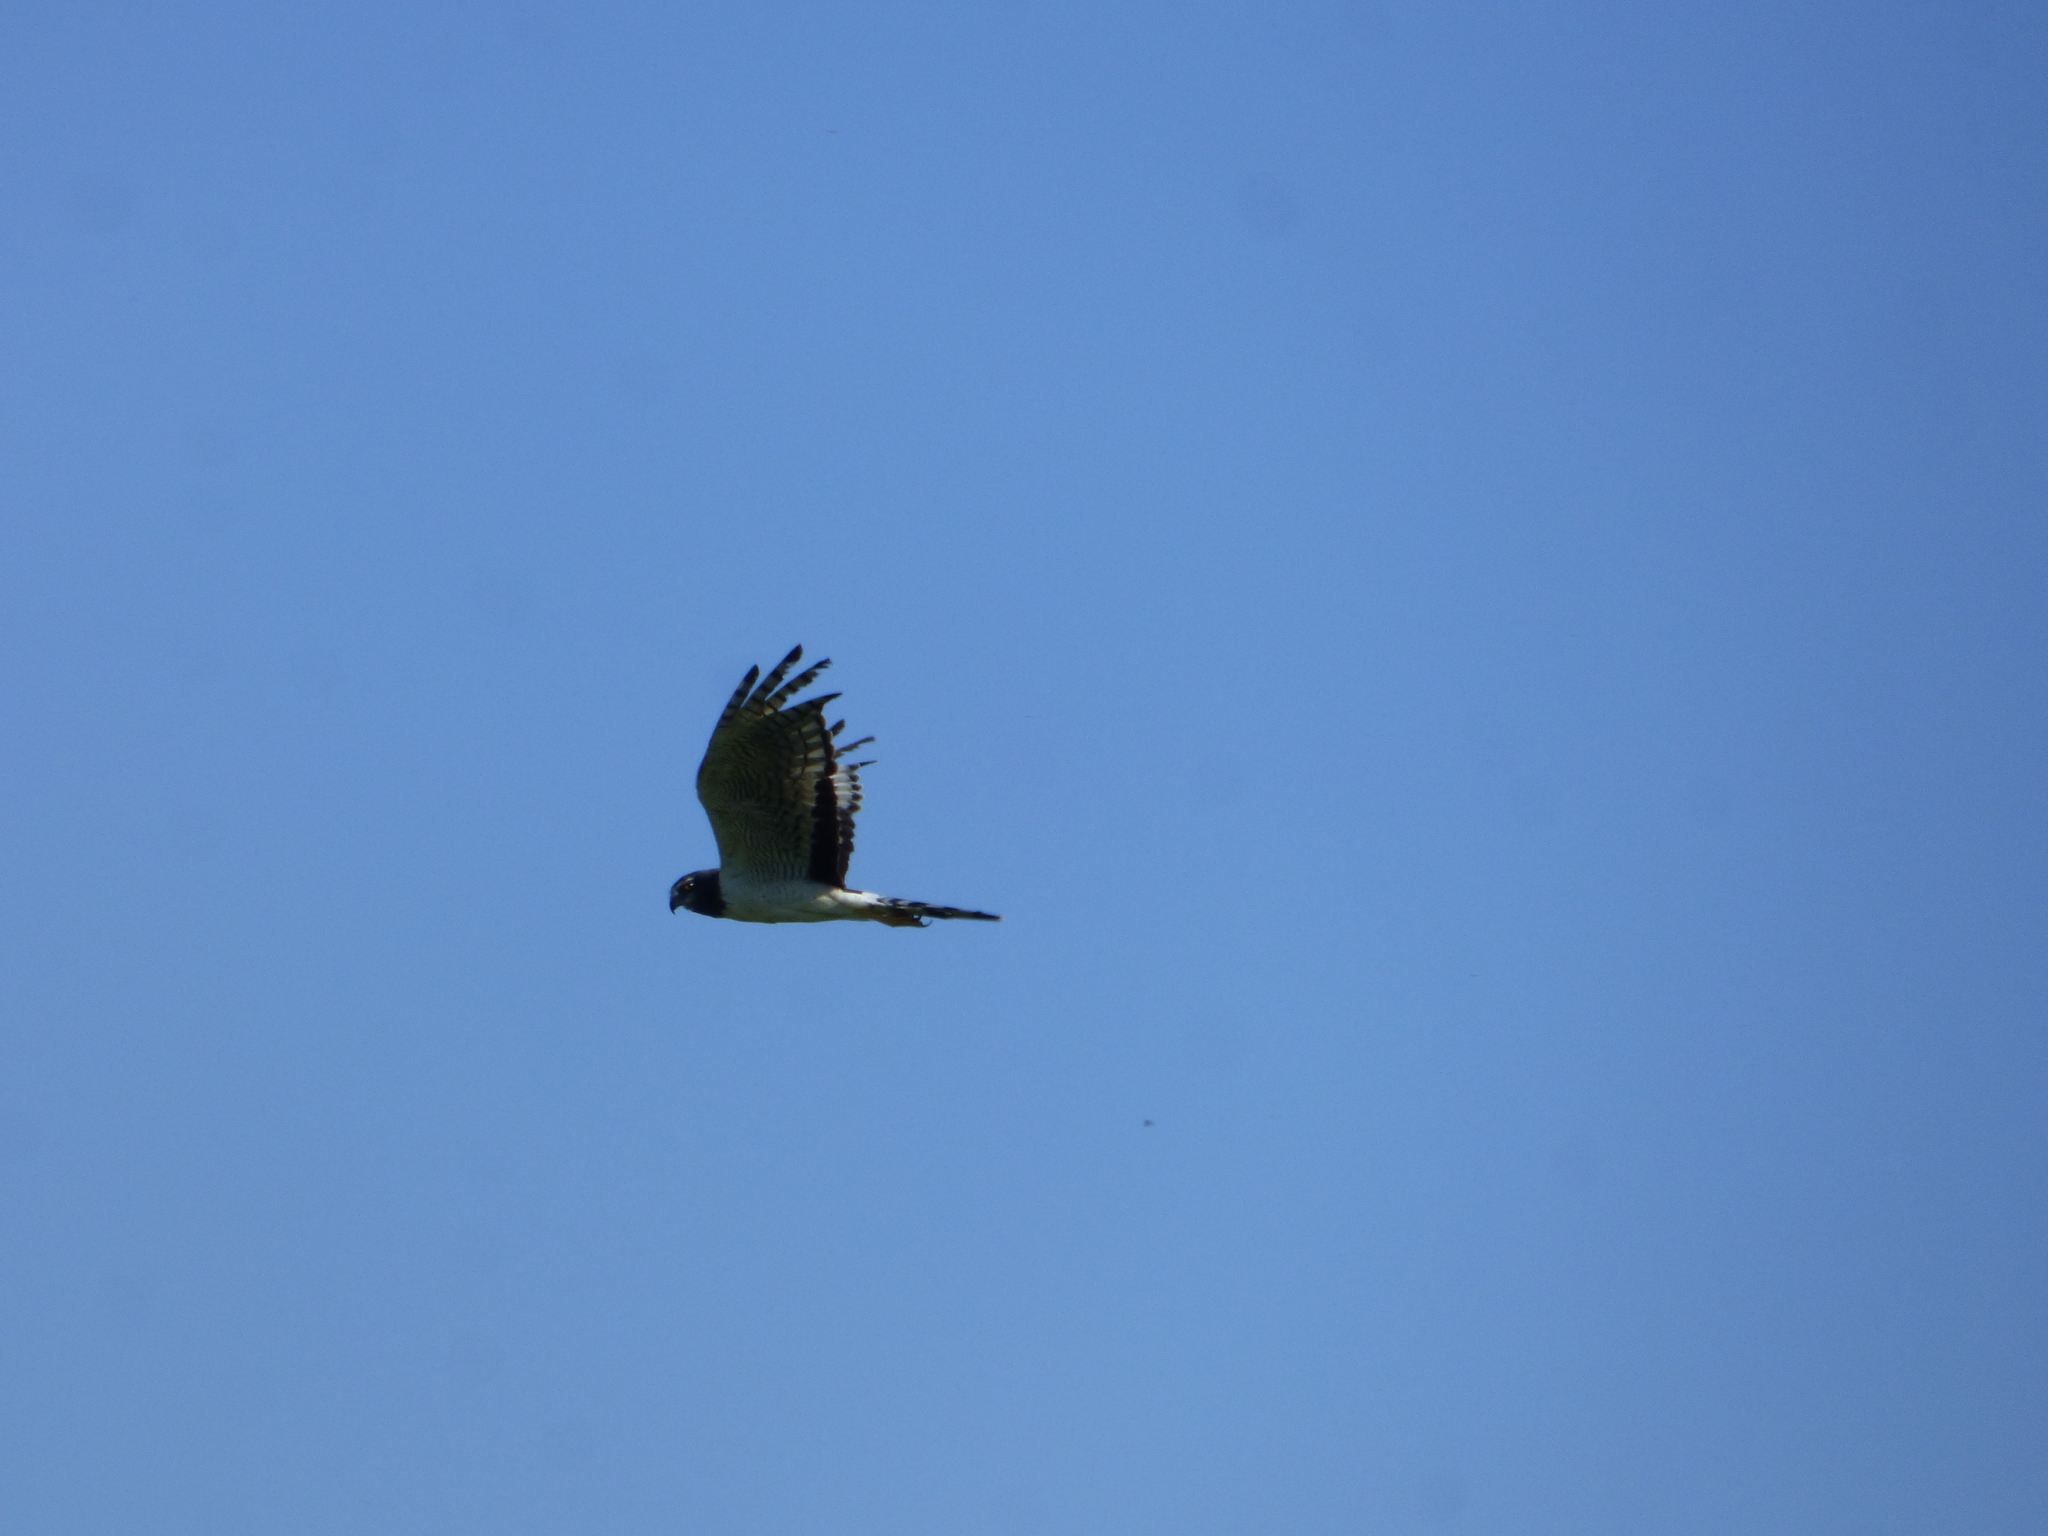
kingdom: Animalia
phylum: Chordata
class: Aves
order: Accipitriformes
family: Accipitridae
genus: Circus
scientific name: Circus buffoni
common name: Long-winged harrier
